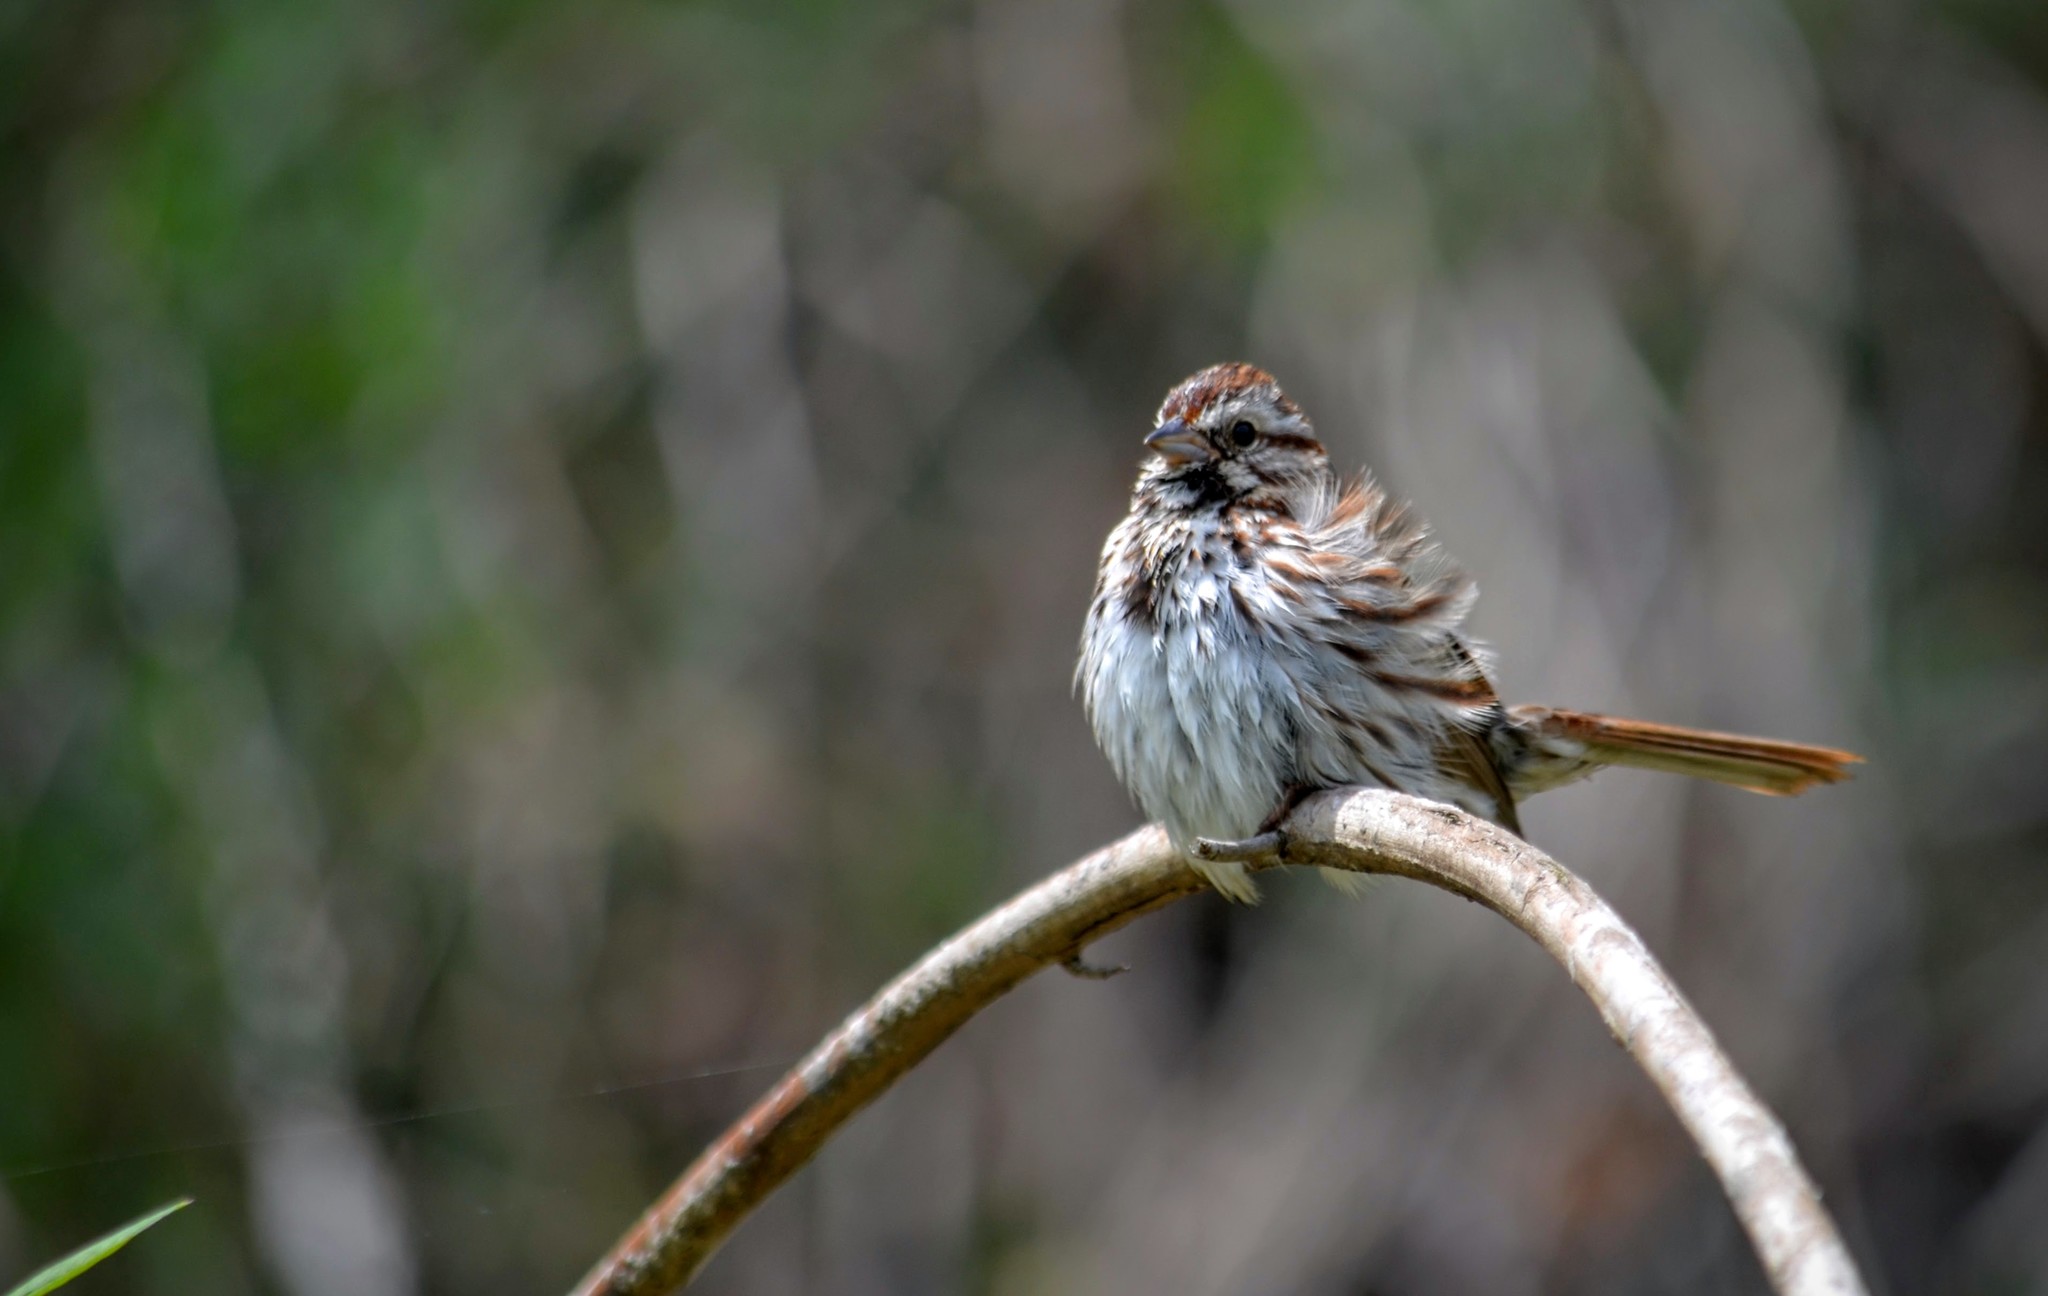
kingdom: Animalia
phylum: Chordata
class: Aves
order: Passeriformes
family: Passerellidae
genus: Melospiza
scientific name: Melospiza melodia
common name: Song sparrow
